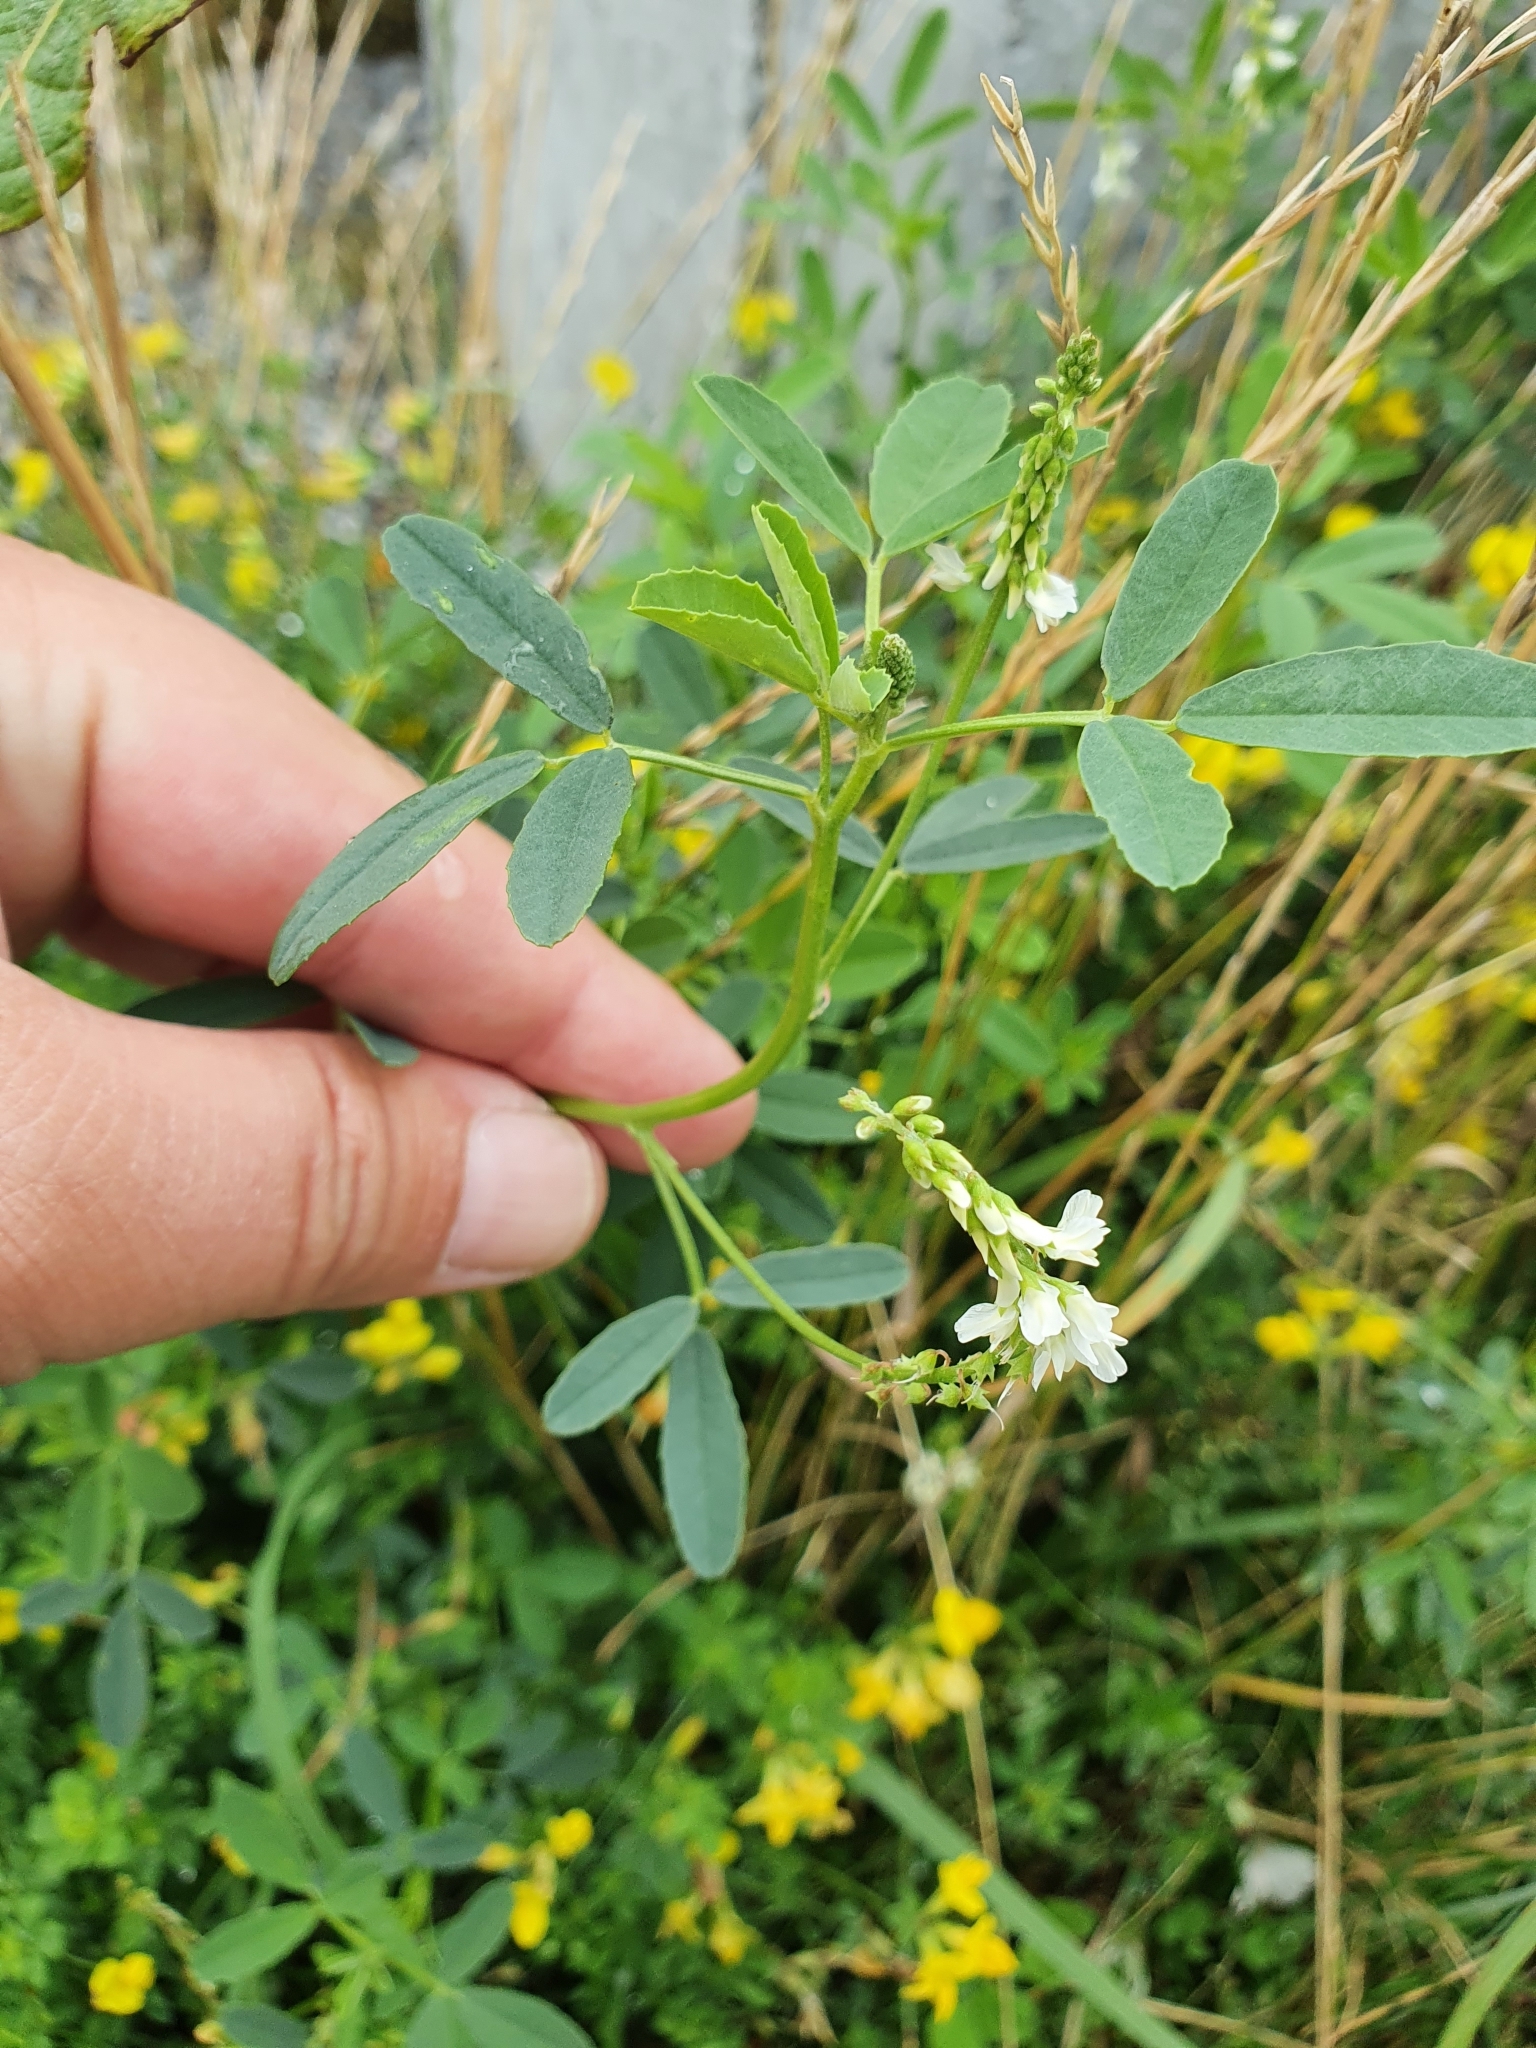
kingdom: Plantae
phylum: Tracheophyta
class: Magnoliopsida
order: Fabales
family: Fabaceae
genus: Melilotus
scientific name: Melilotus albus
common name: White melilot
